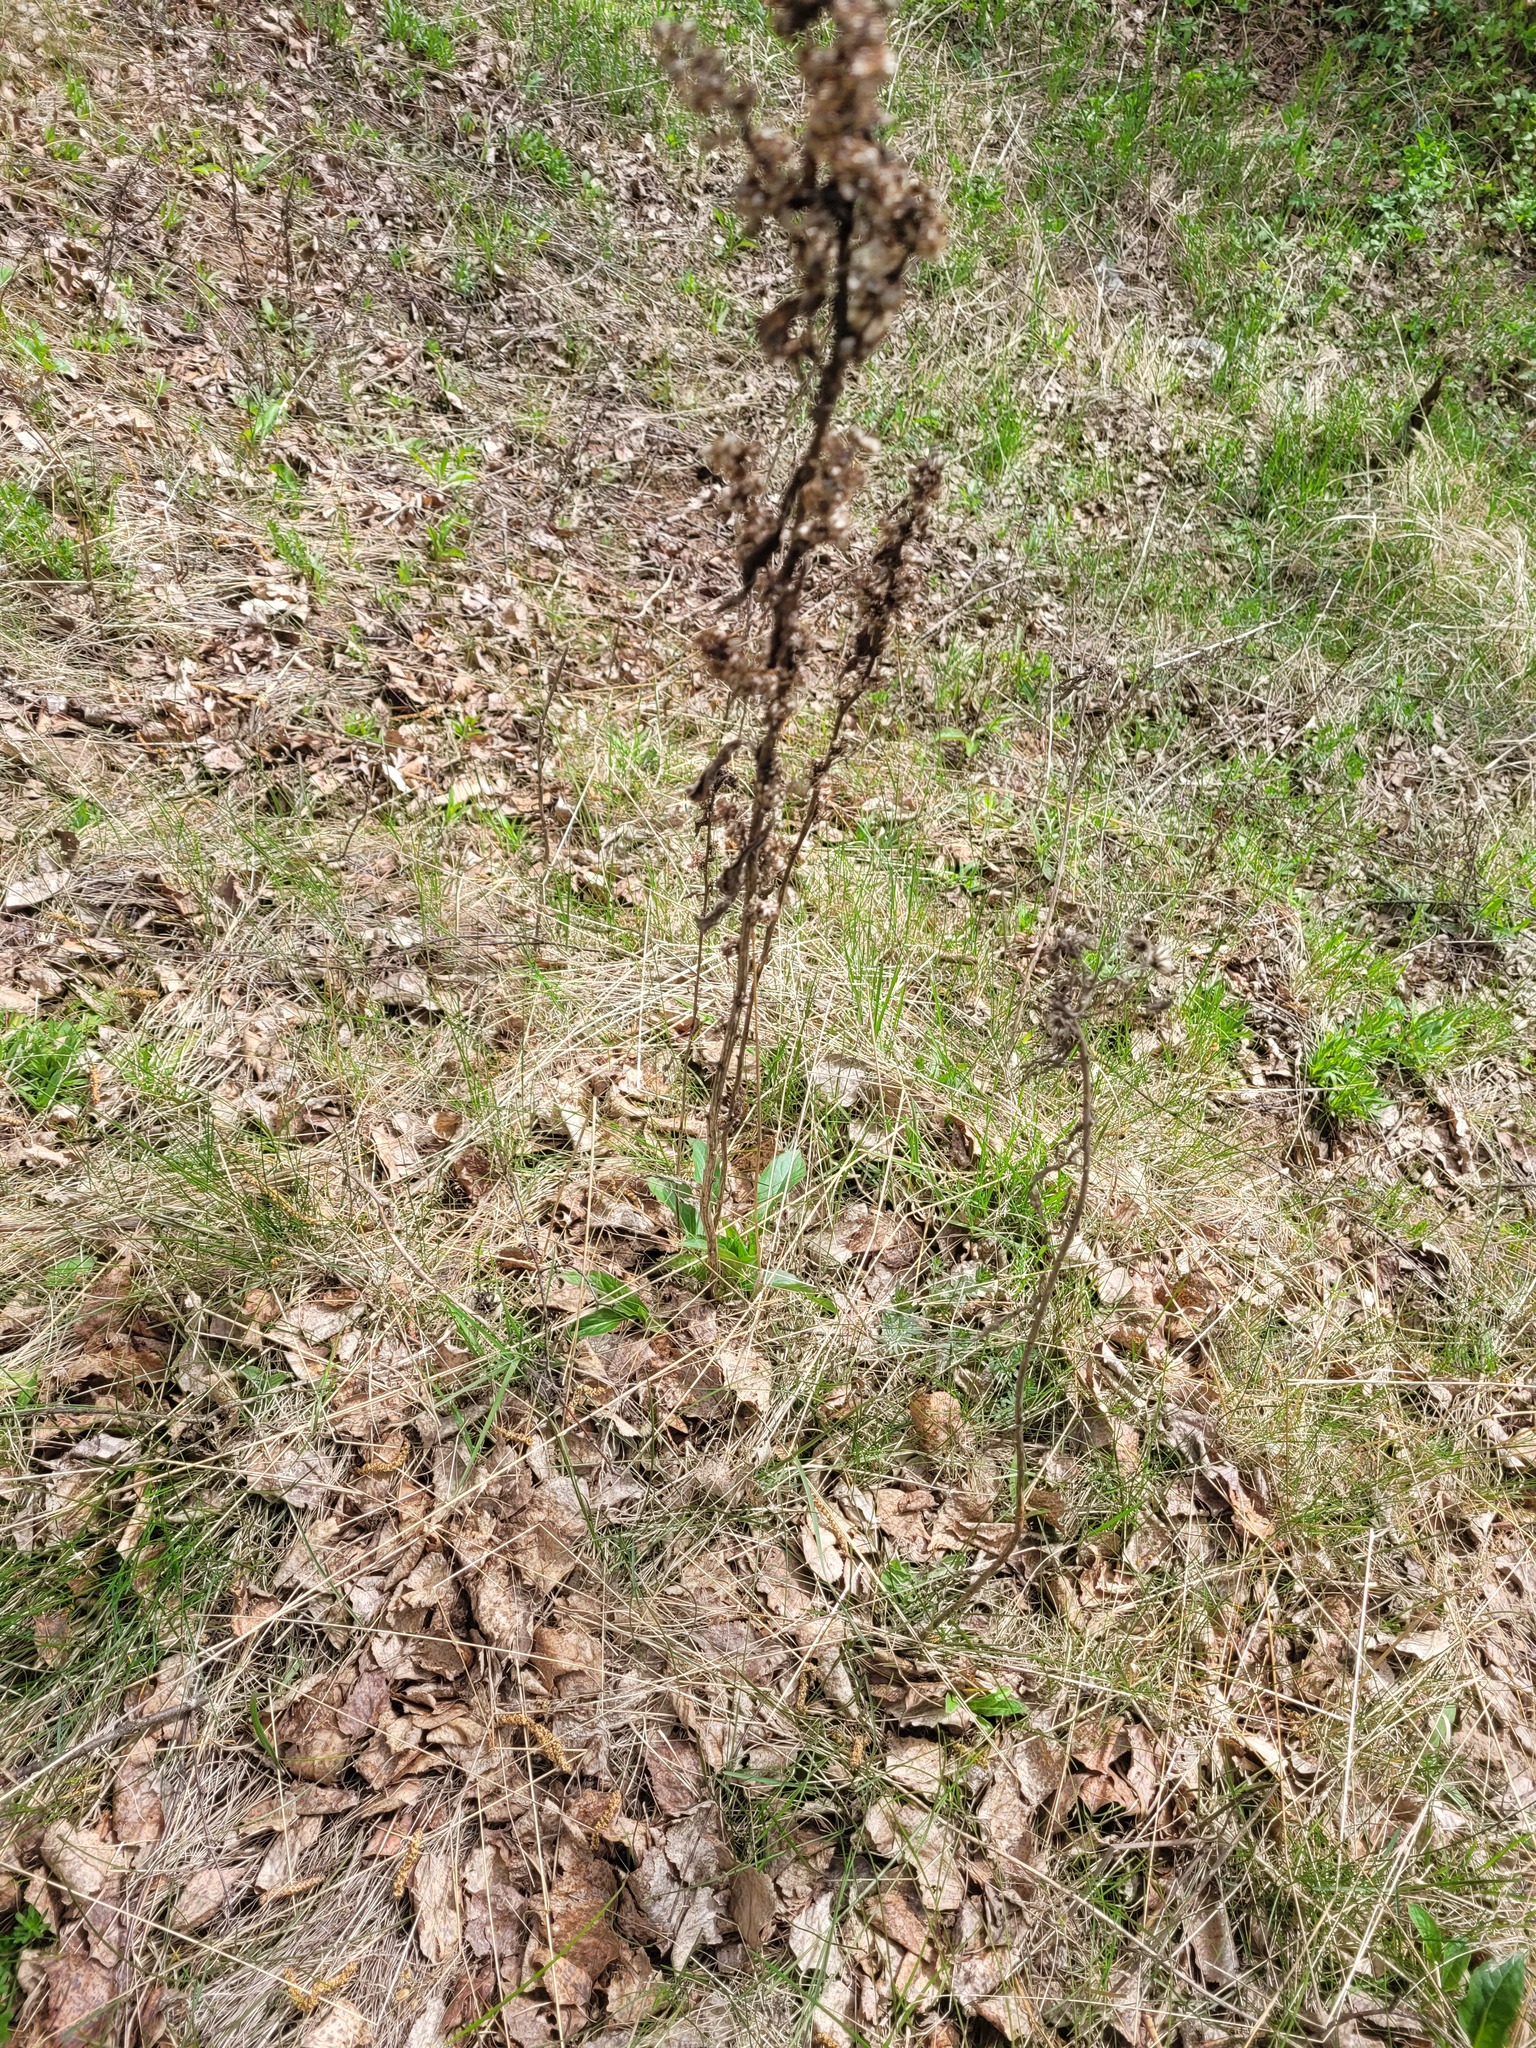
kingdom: Plantae
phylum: Tracheophyta
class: Magnoliopsida
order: Asterales
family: Asteraceae
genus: Solidago
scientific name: Solidago virgaurea
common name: Goldenrod
